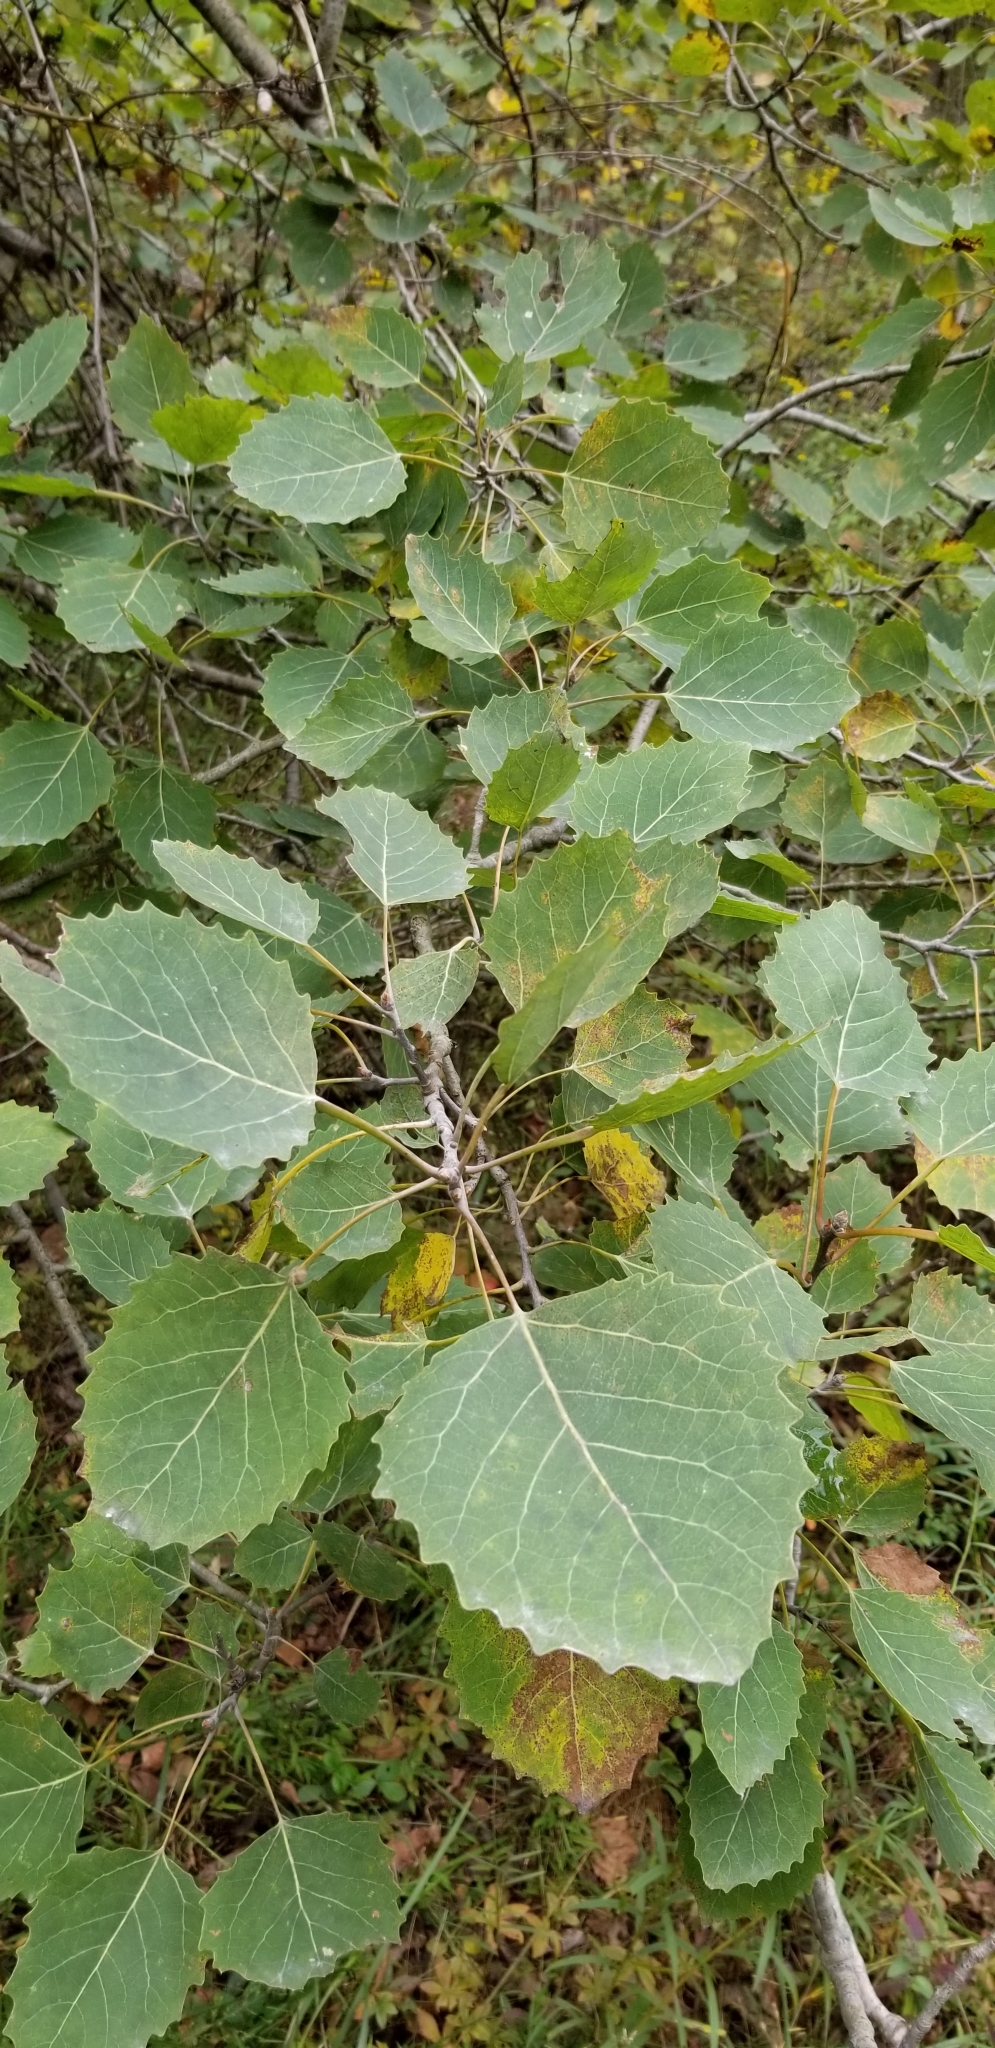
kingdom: Plantae
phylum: Tracheophyta
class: Magnoliopsida
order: Malpighiales
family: Salicaceae
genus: Populus
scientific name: Populus grandidentata
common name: Bigtooth aspen
